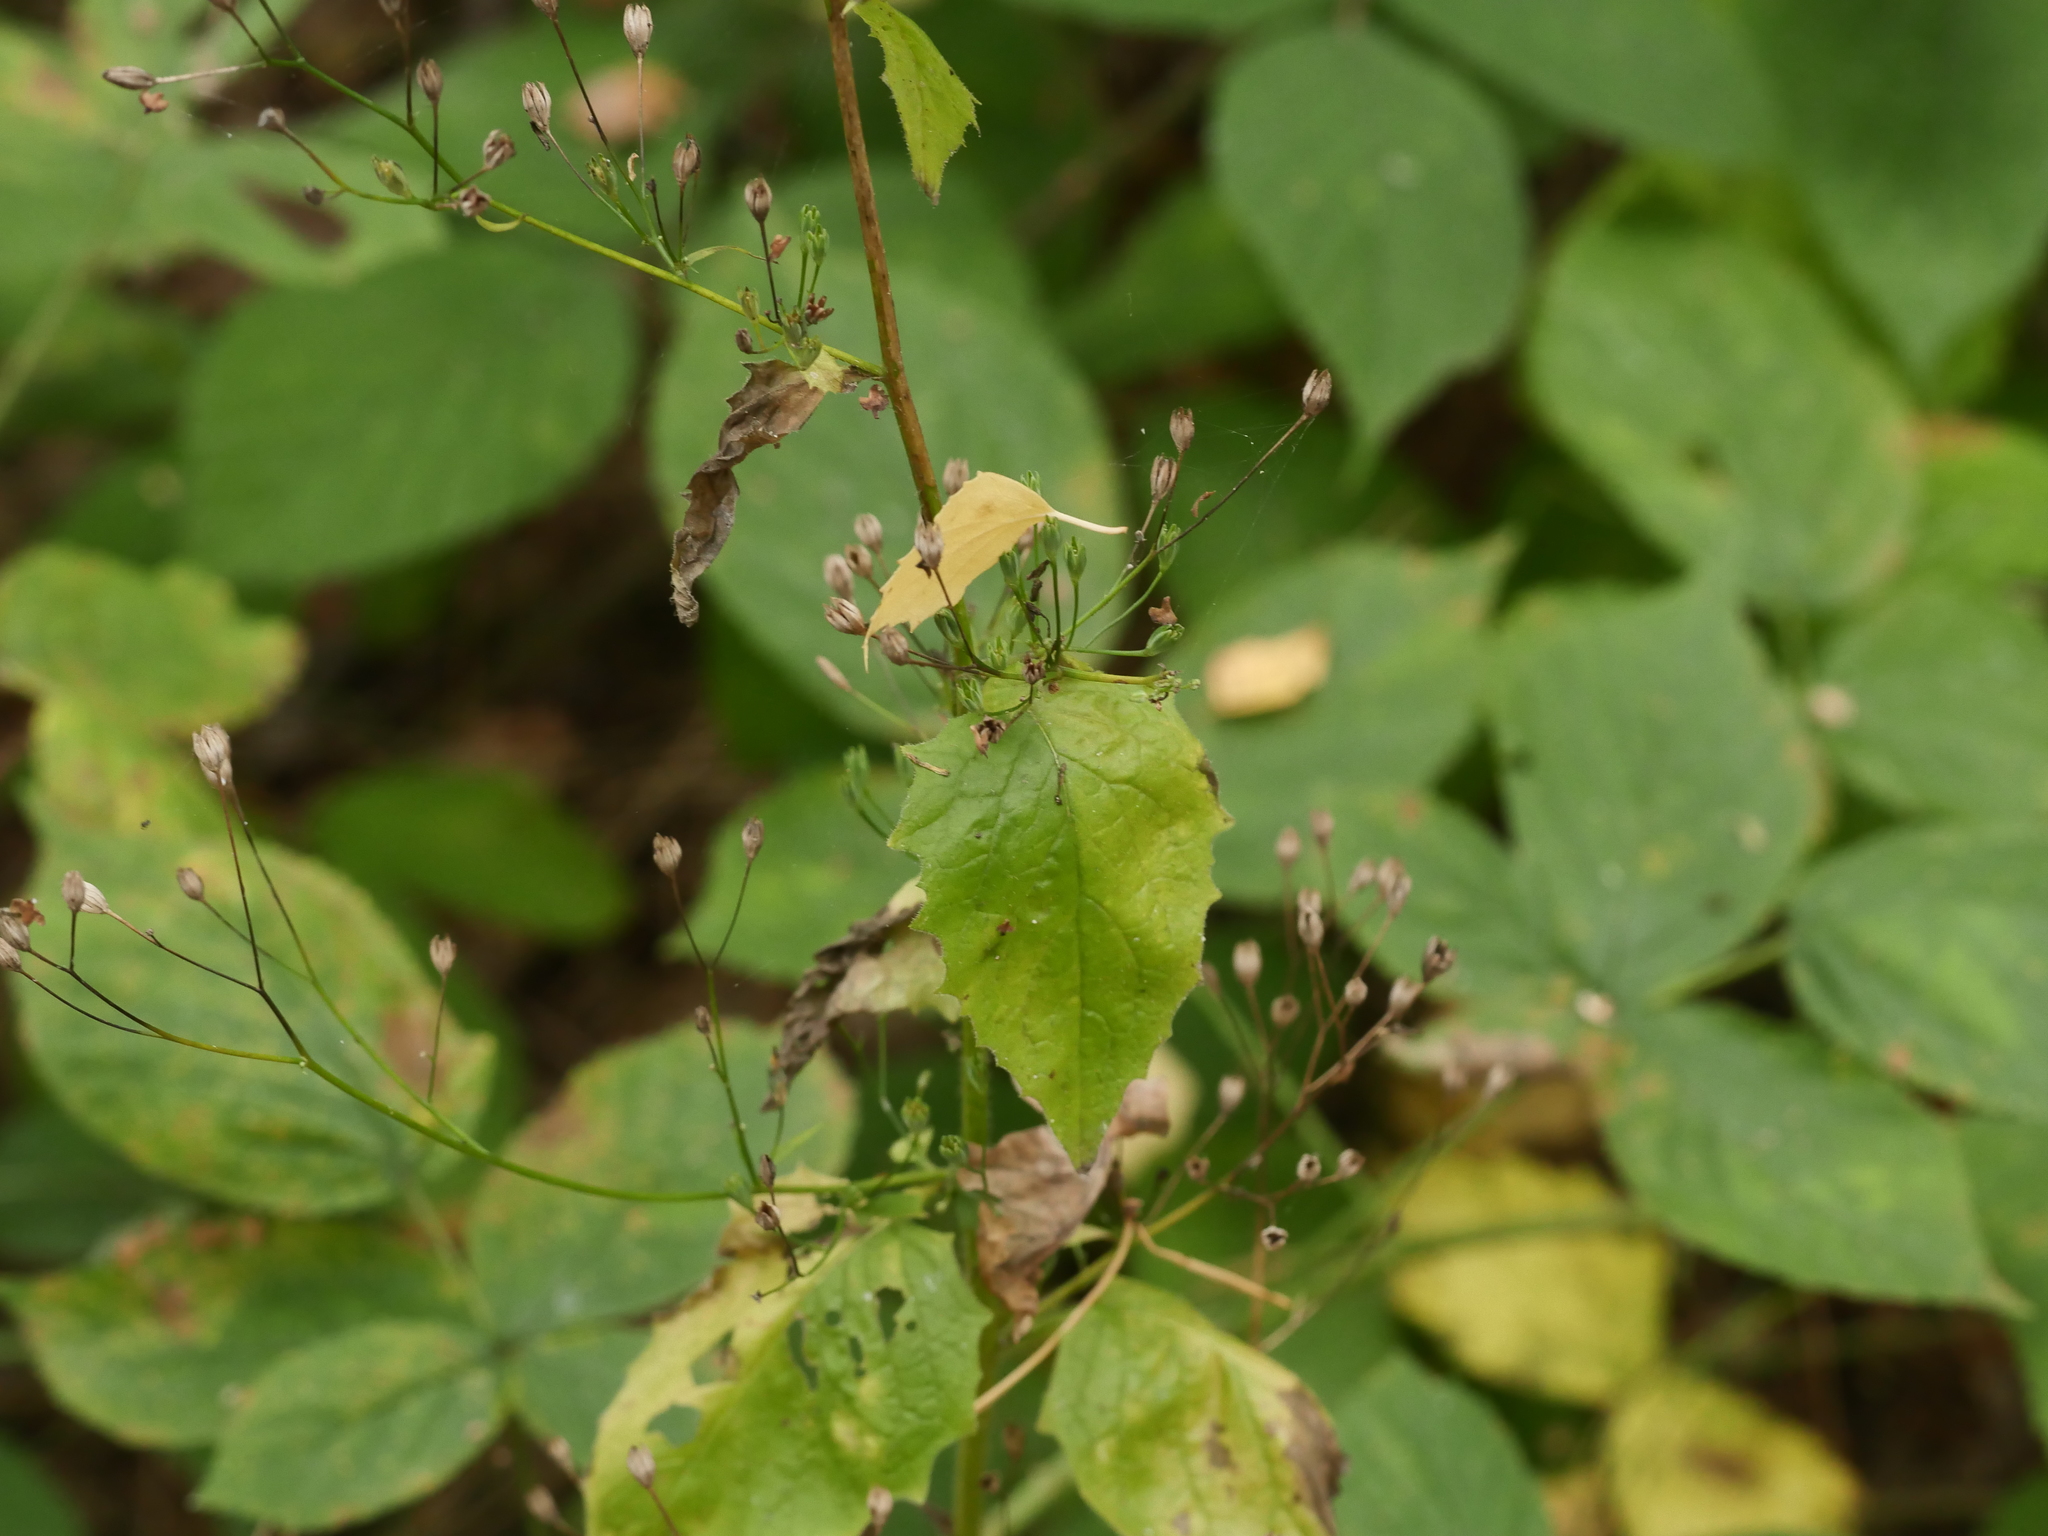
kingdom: Plantae
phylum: Tracheophyta
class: Magnoliopsida
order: Asterales
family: Asteraceae
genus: Lapsana
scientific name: Lapsana communis
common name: Nipplewort
